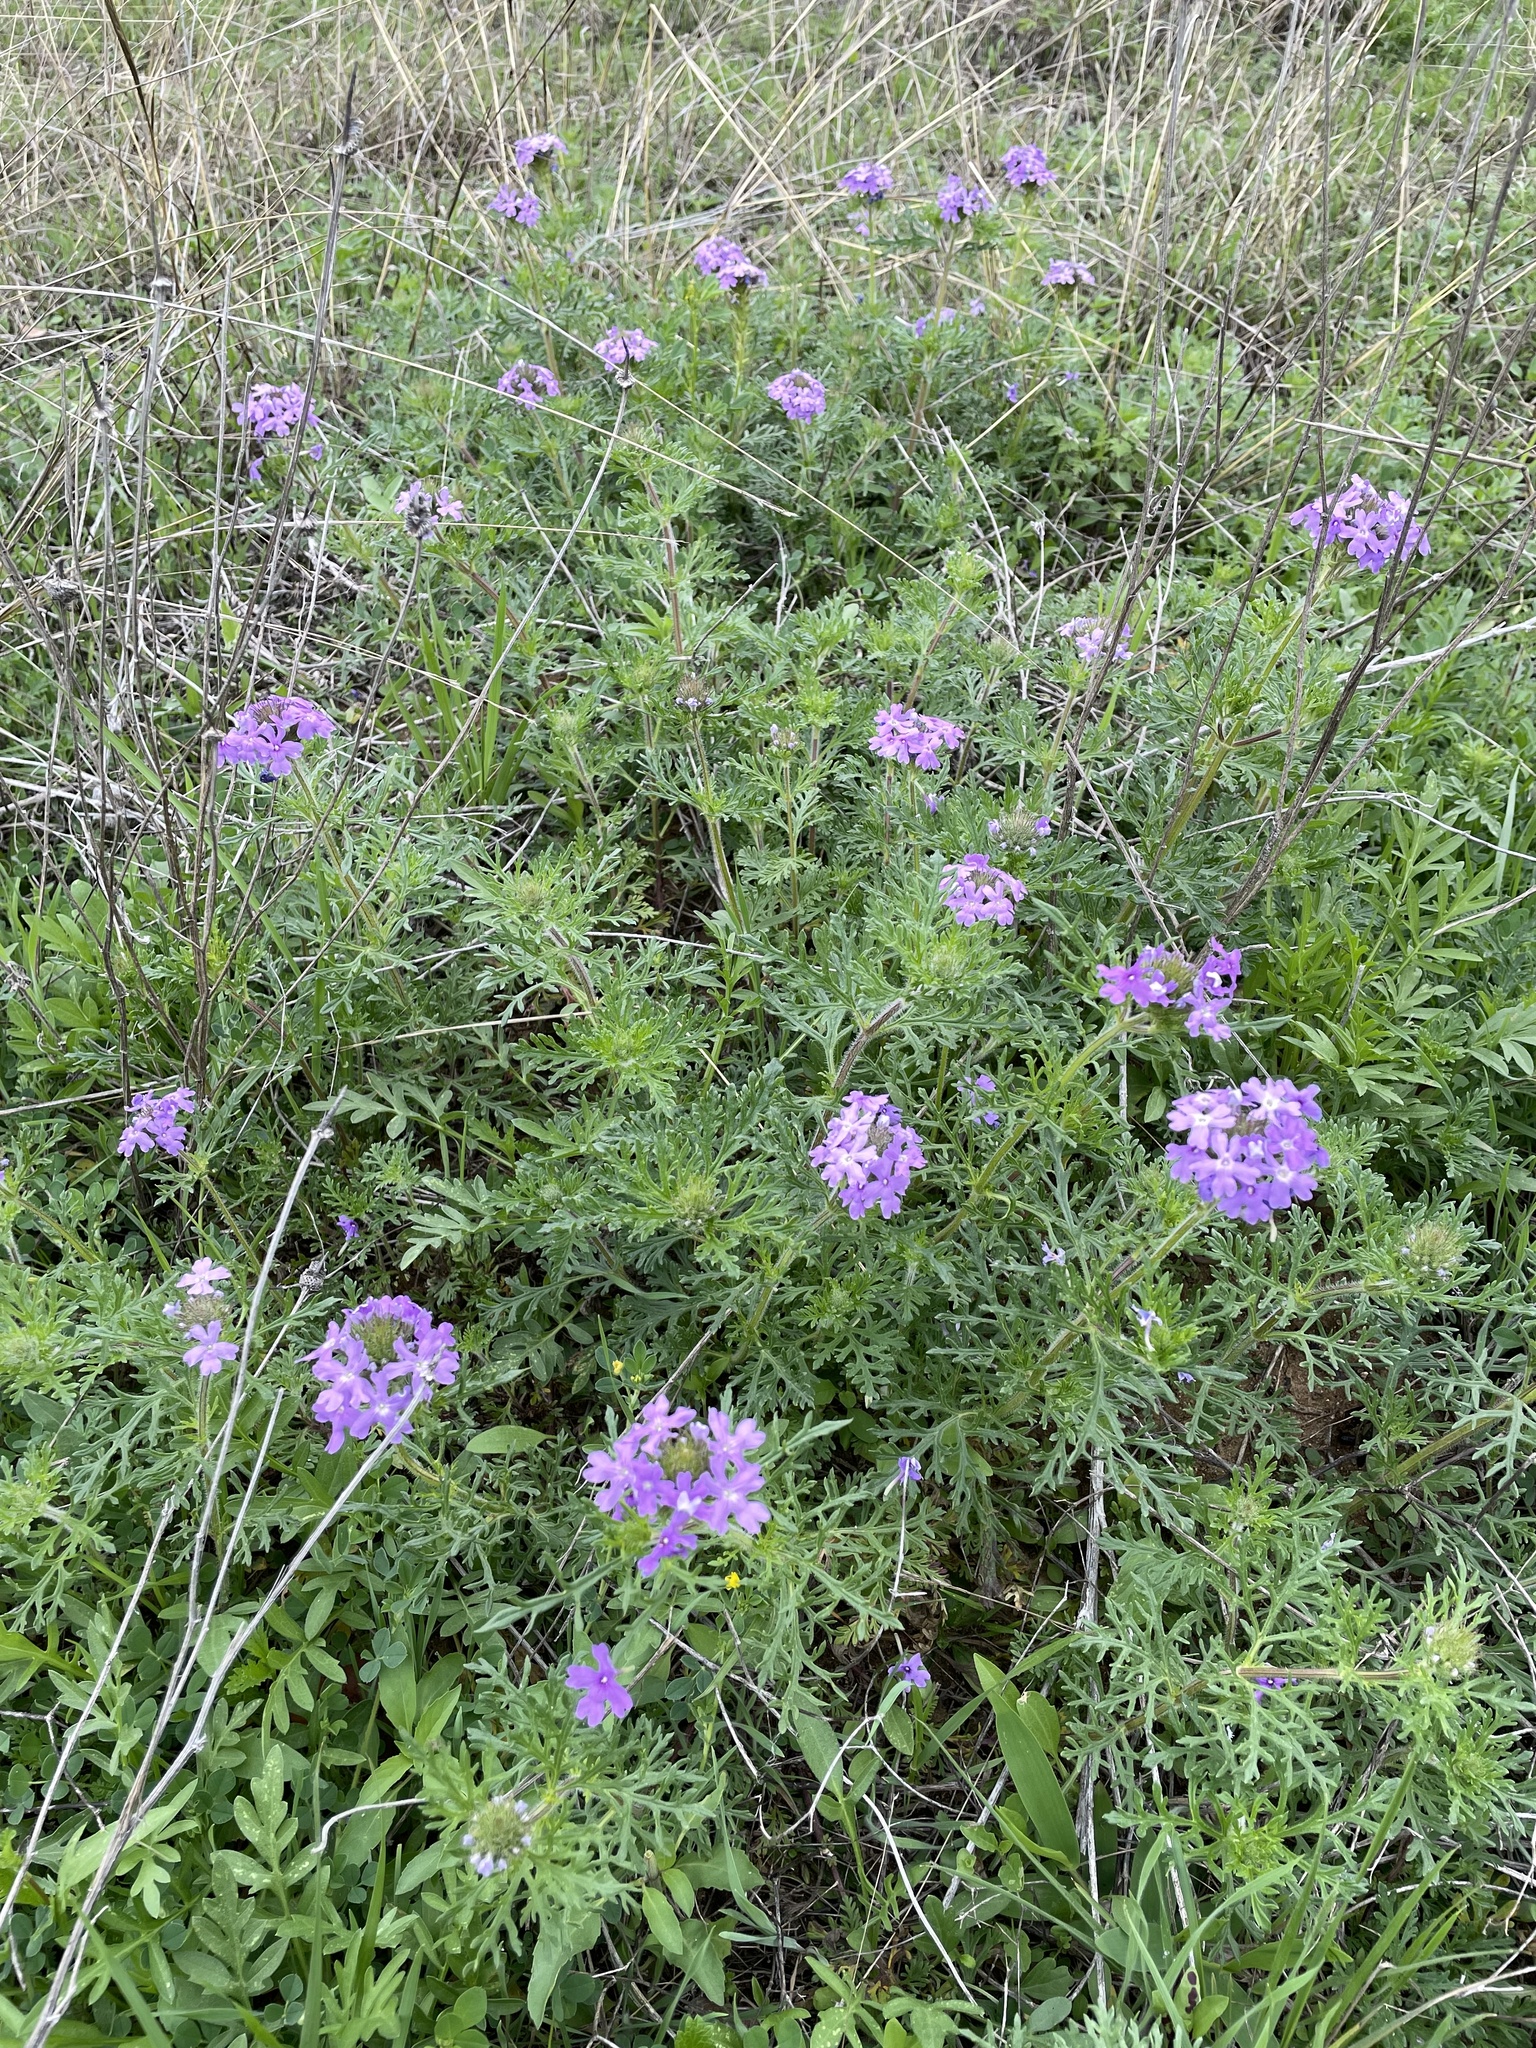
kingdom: Plantae
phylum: Tracheophyta
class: Magnoliopsida
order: Lamiales
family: Verbenaceae
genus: Verbena
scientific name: Verbena bipinnatifida
